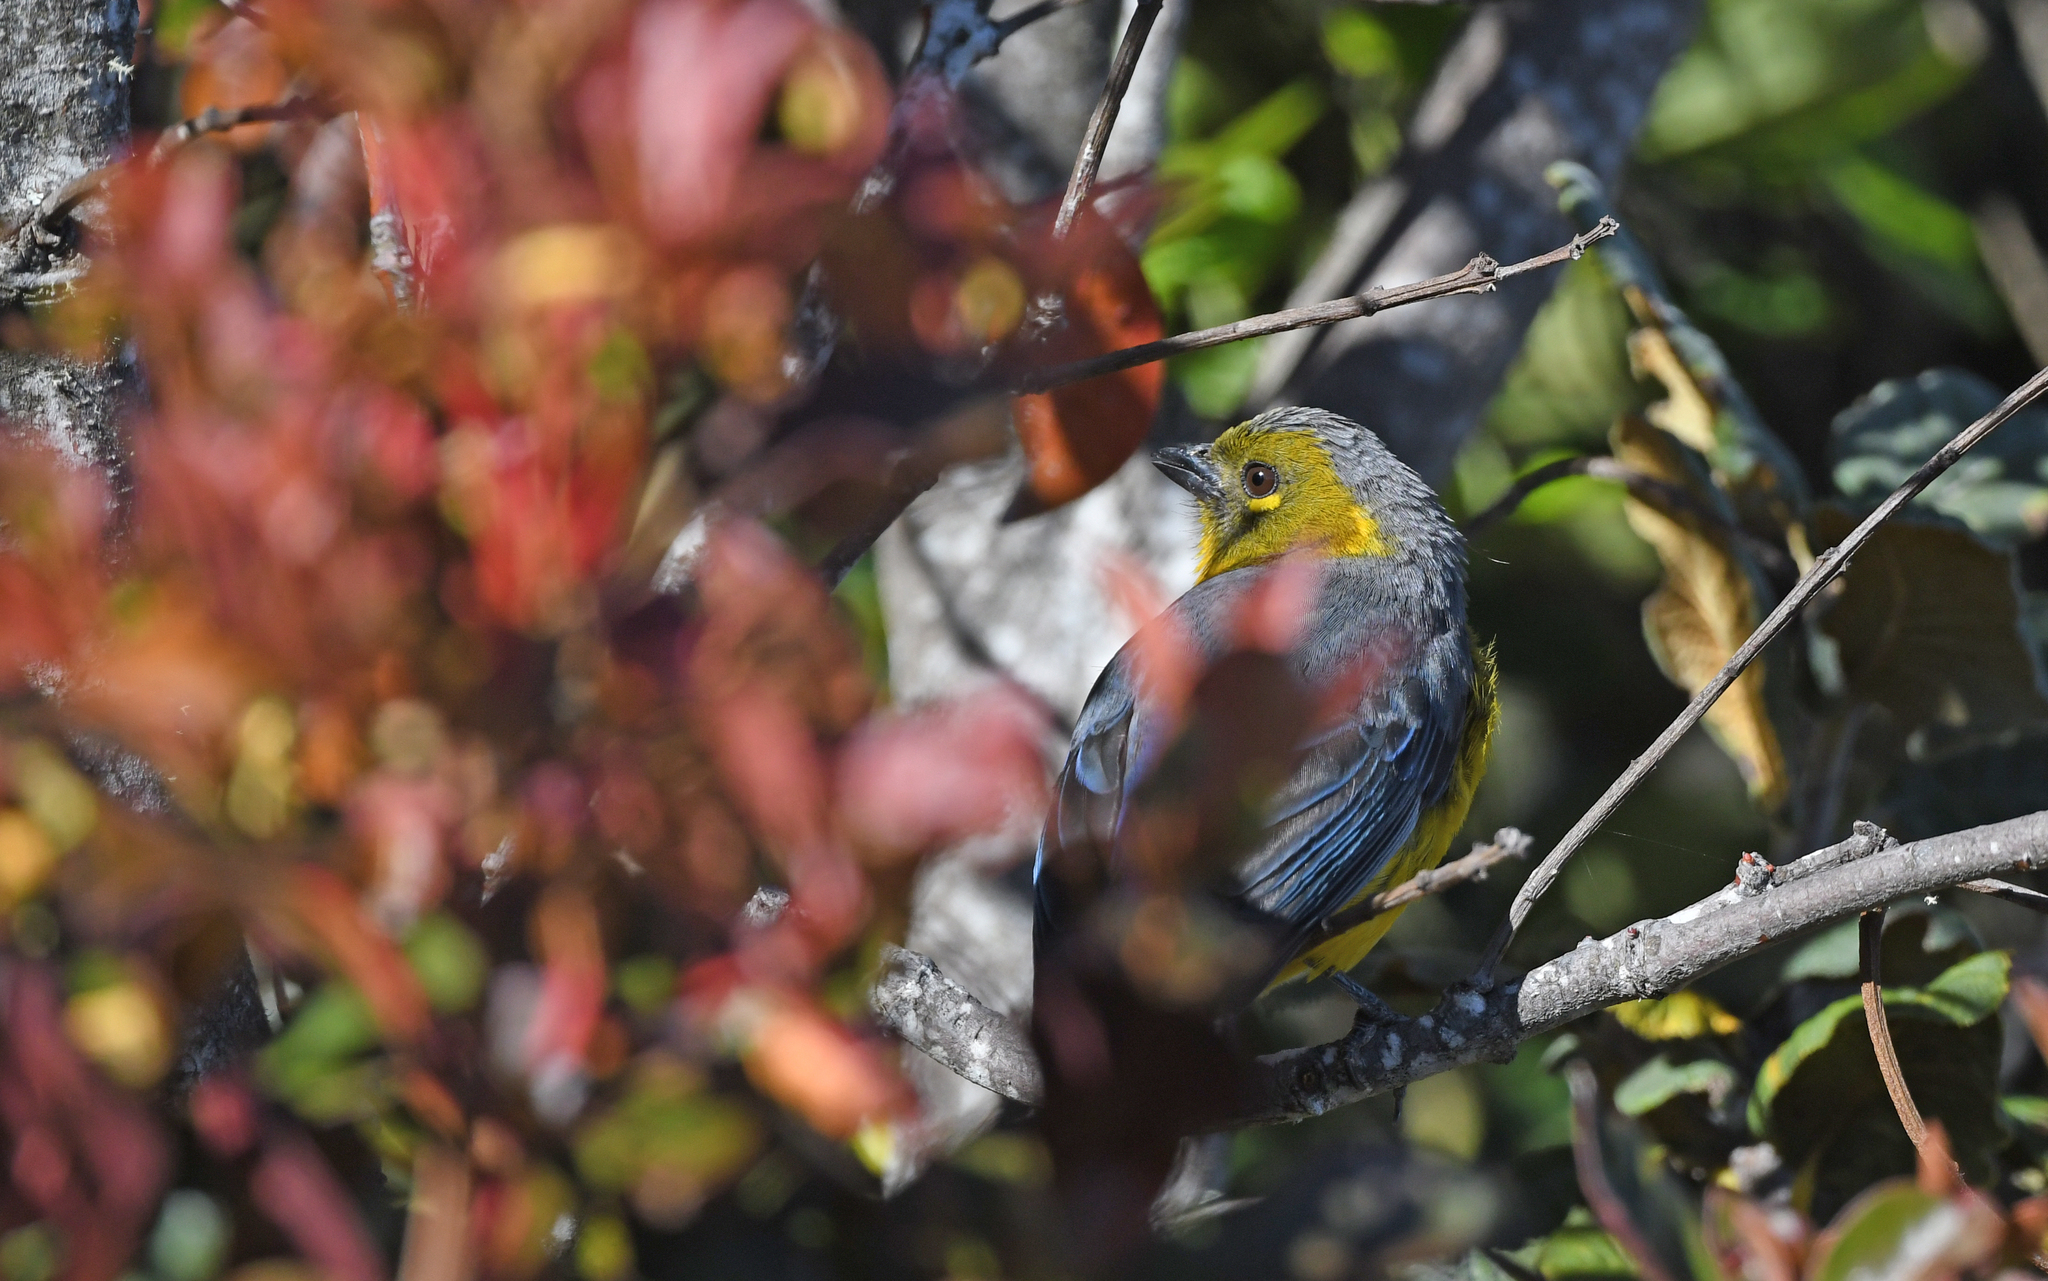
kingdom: Animalia
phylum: Chordata
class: Aves
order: Passeriformes
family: Thraupidae
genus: Anisognathus
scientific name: Anisognathus lacrymosus
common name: Lacrimose mountain-tanager
